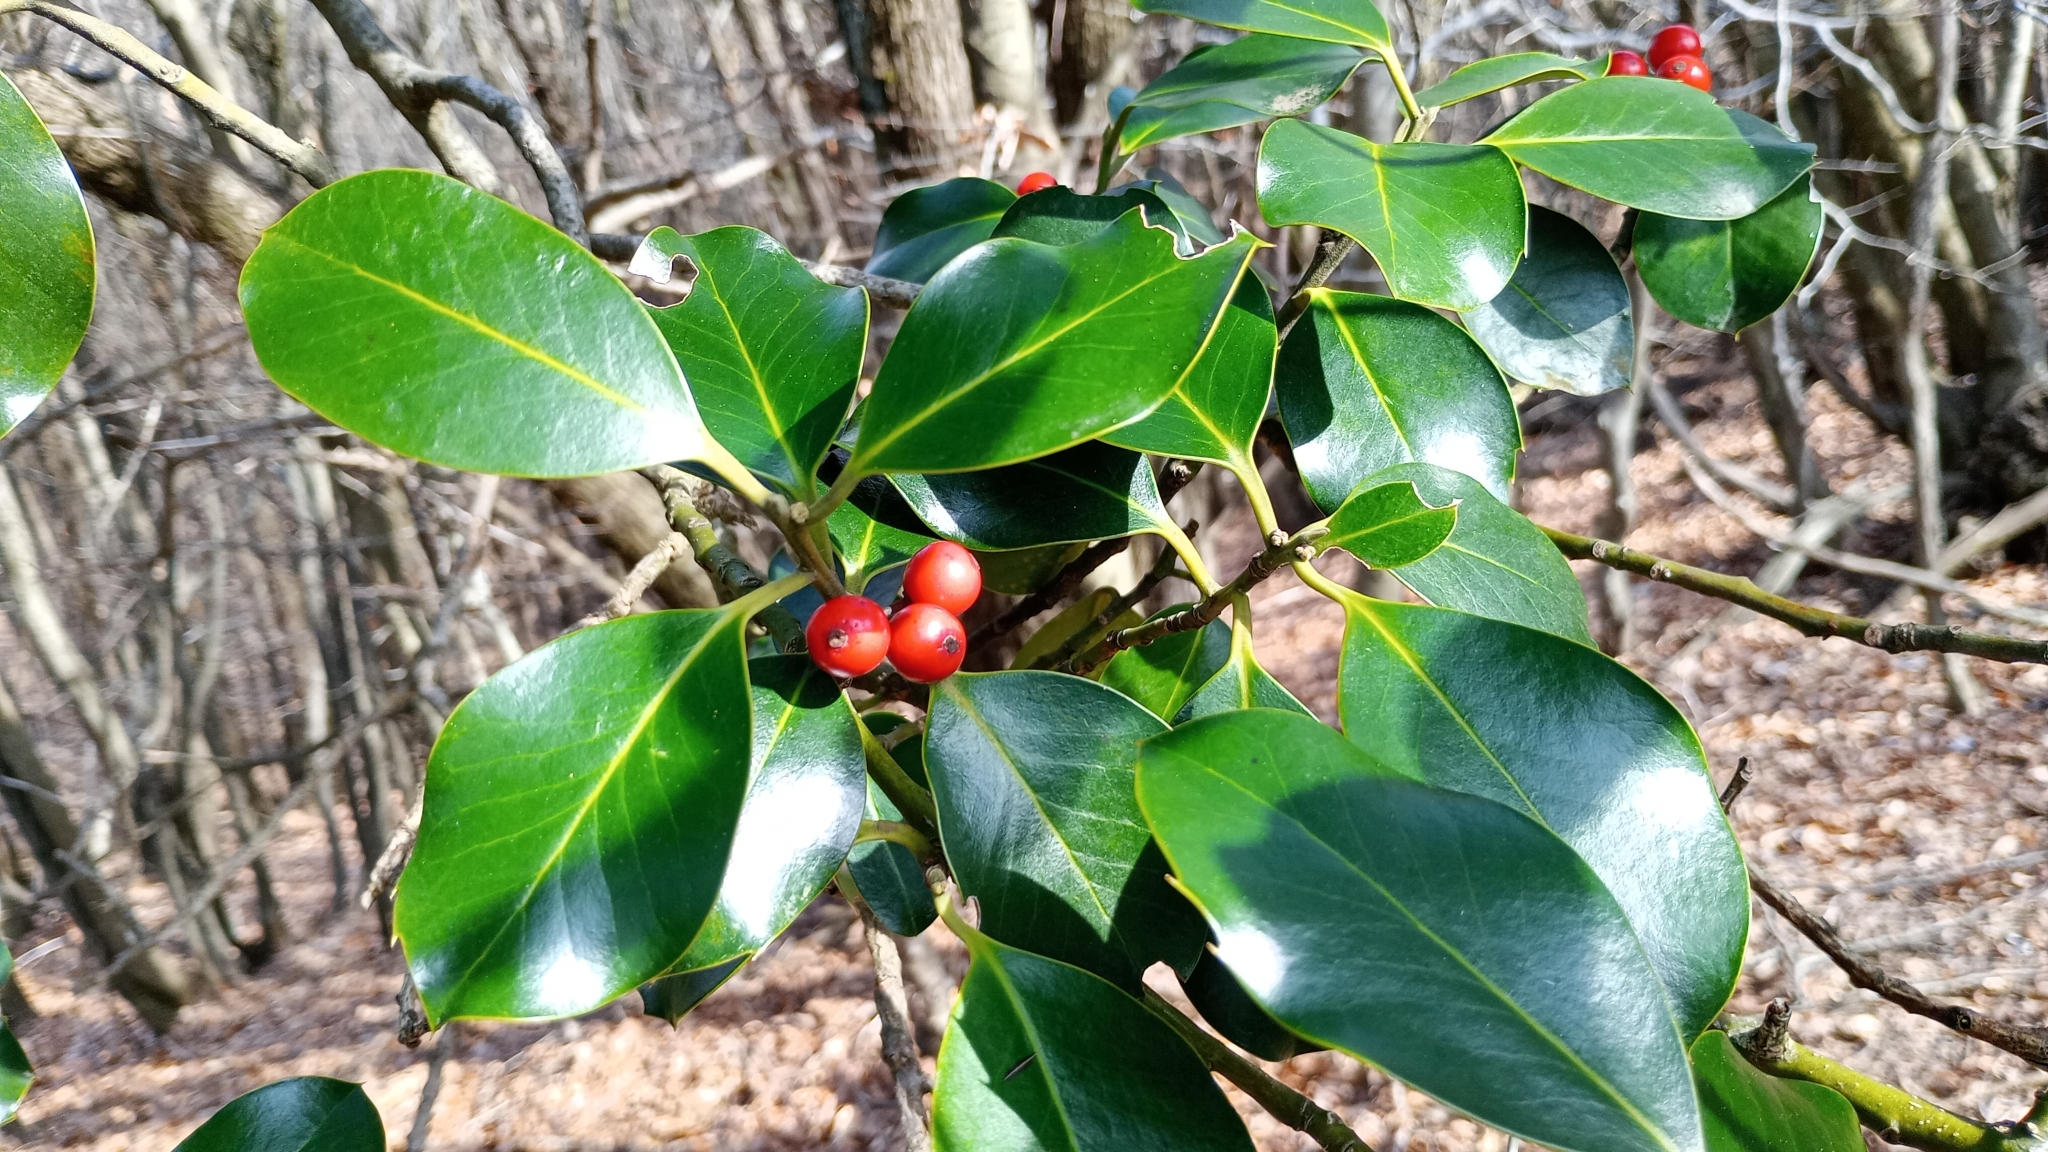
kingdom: Plantae
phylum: Tracheophyta
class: Magnoliopsida
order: Aquifoliales
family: Aquifoliaceae
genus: Ilex
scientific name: Ilex aquifolium
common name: English holly
